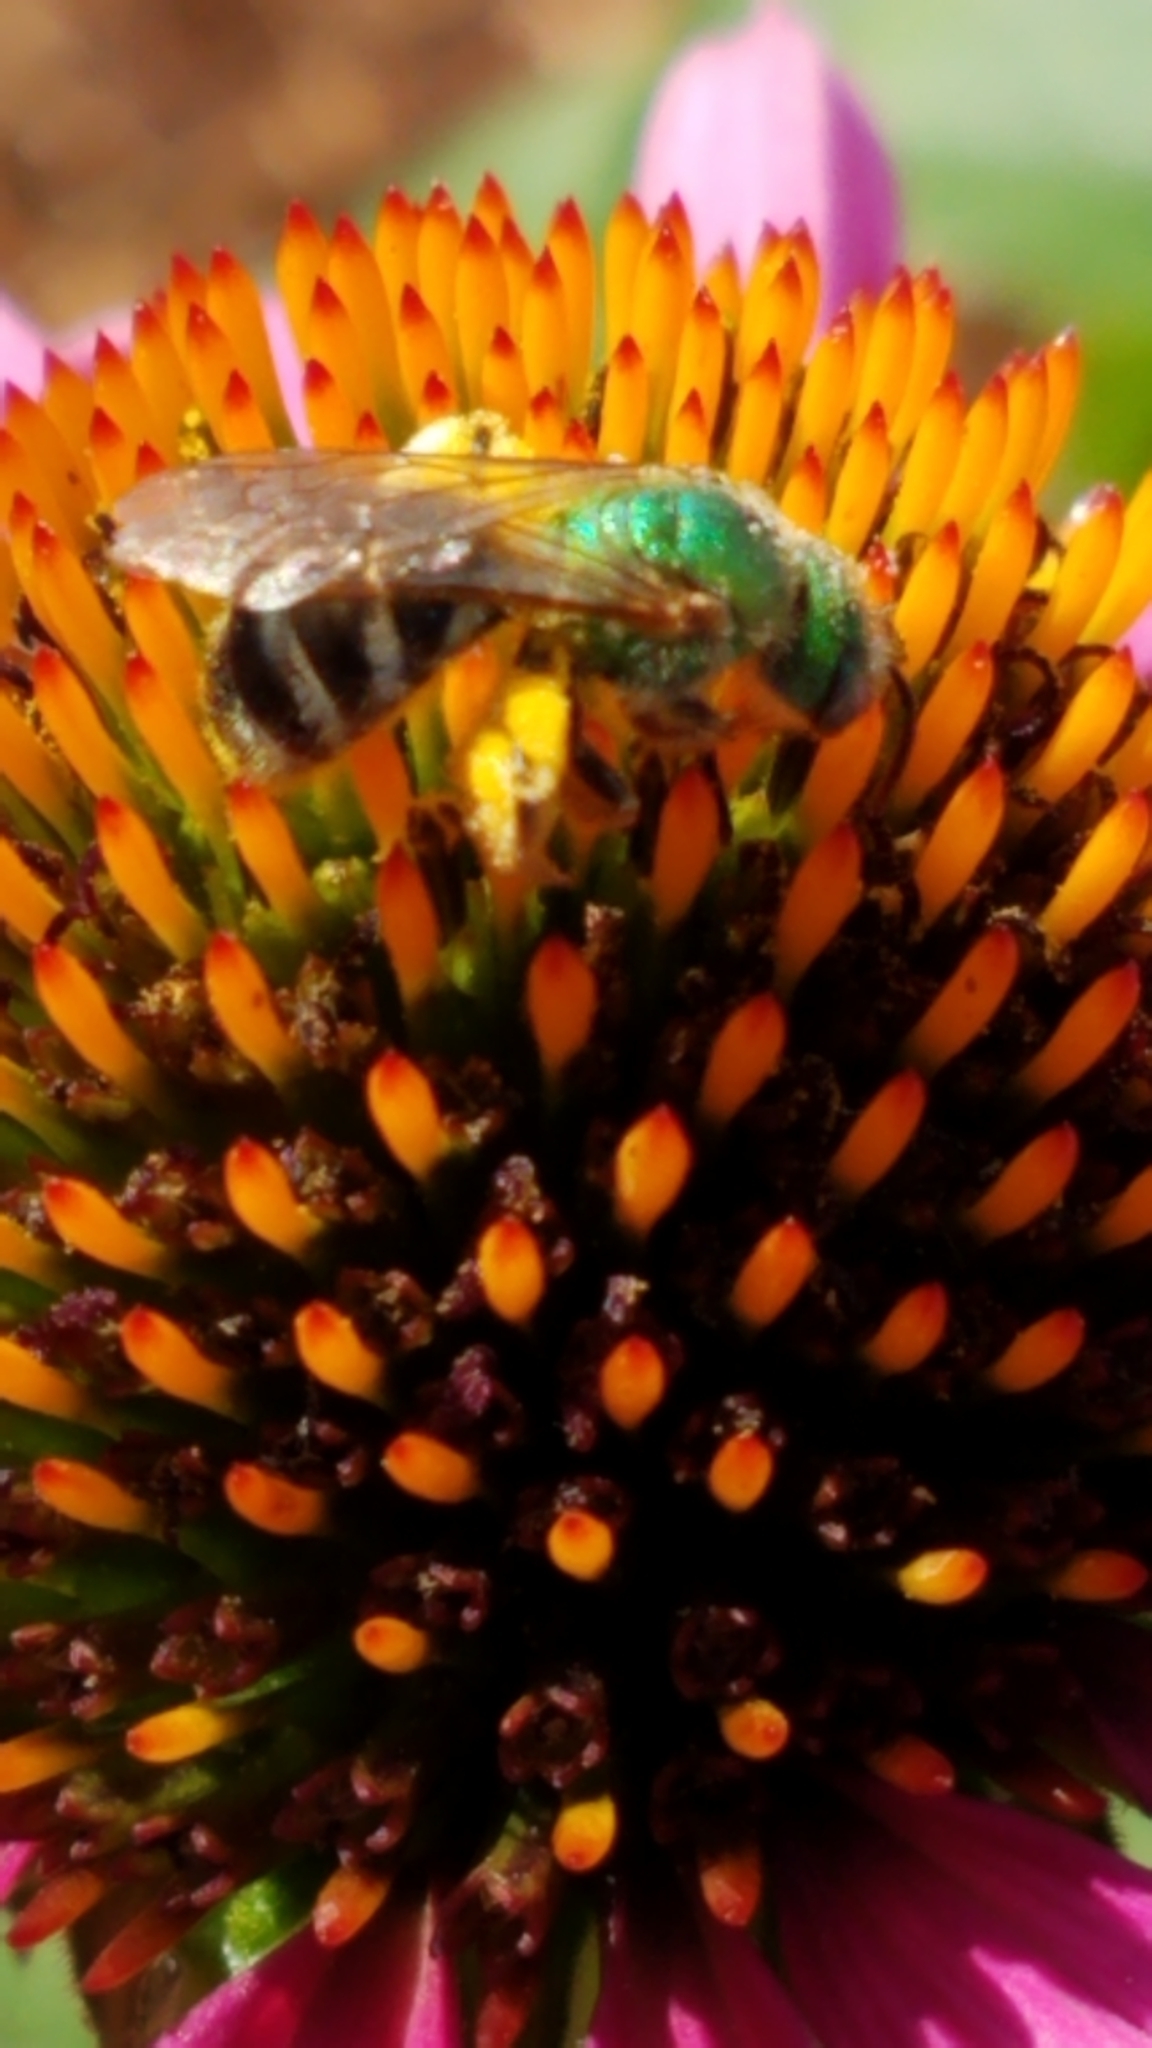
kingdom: Animalia
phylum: Arthropoda
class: Insecta
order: Hymenoptera
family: Halictidae
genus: Agapostemon
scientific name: Agapostemon virescens
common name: Bicolored striped sweat bee
